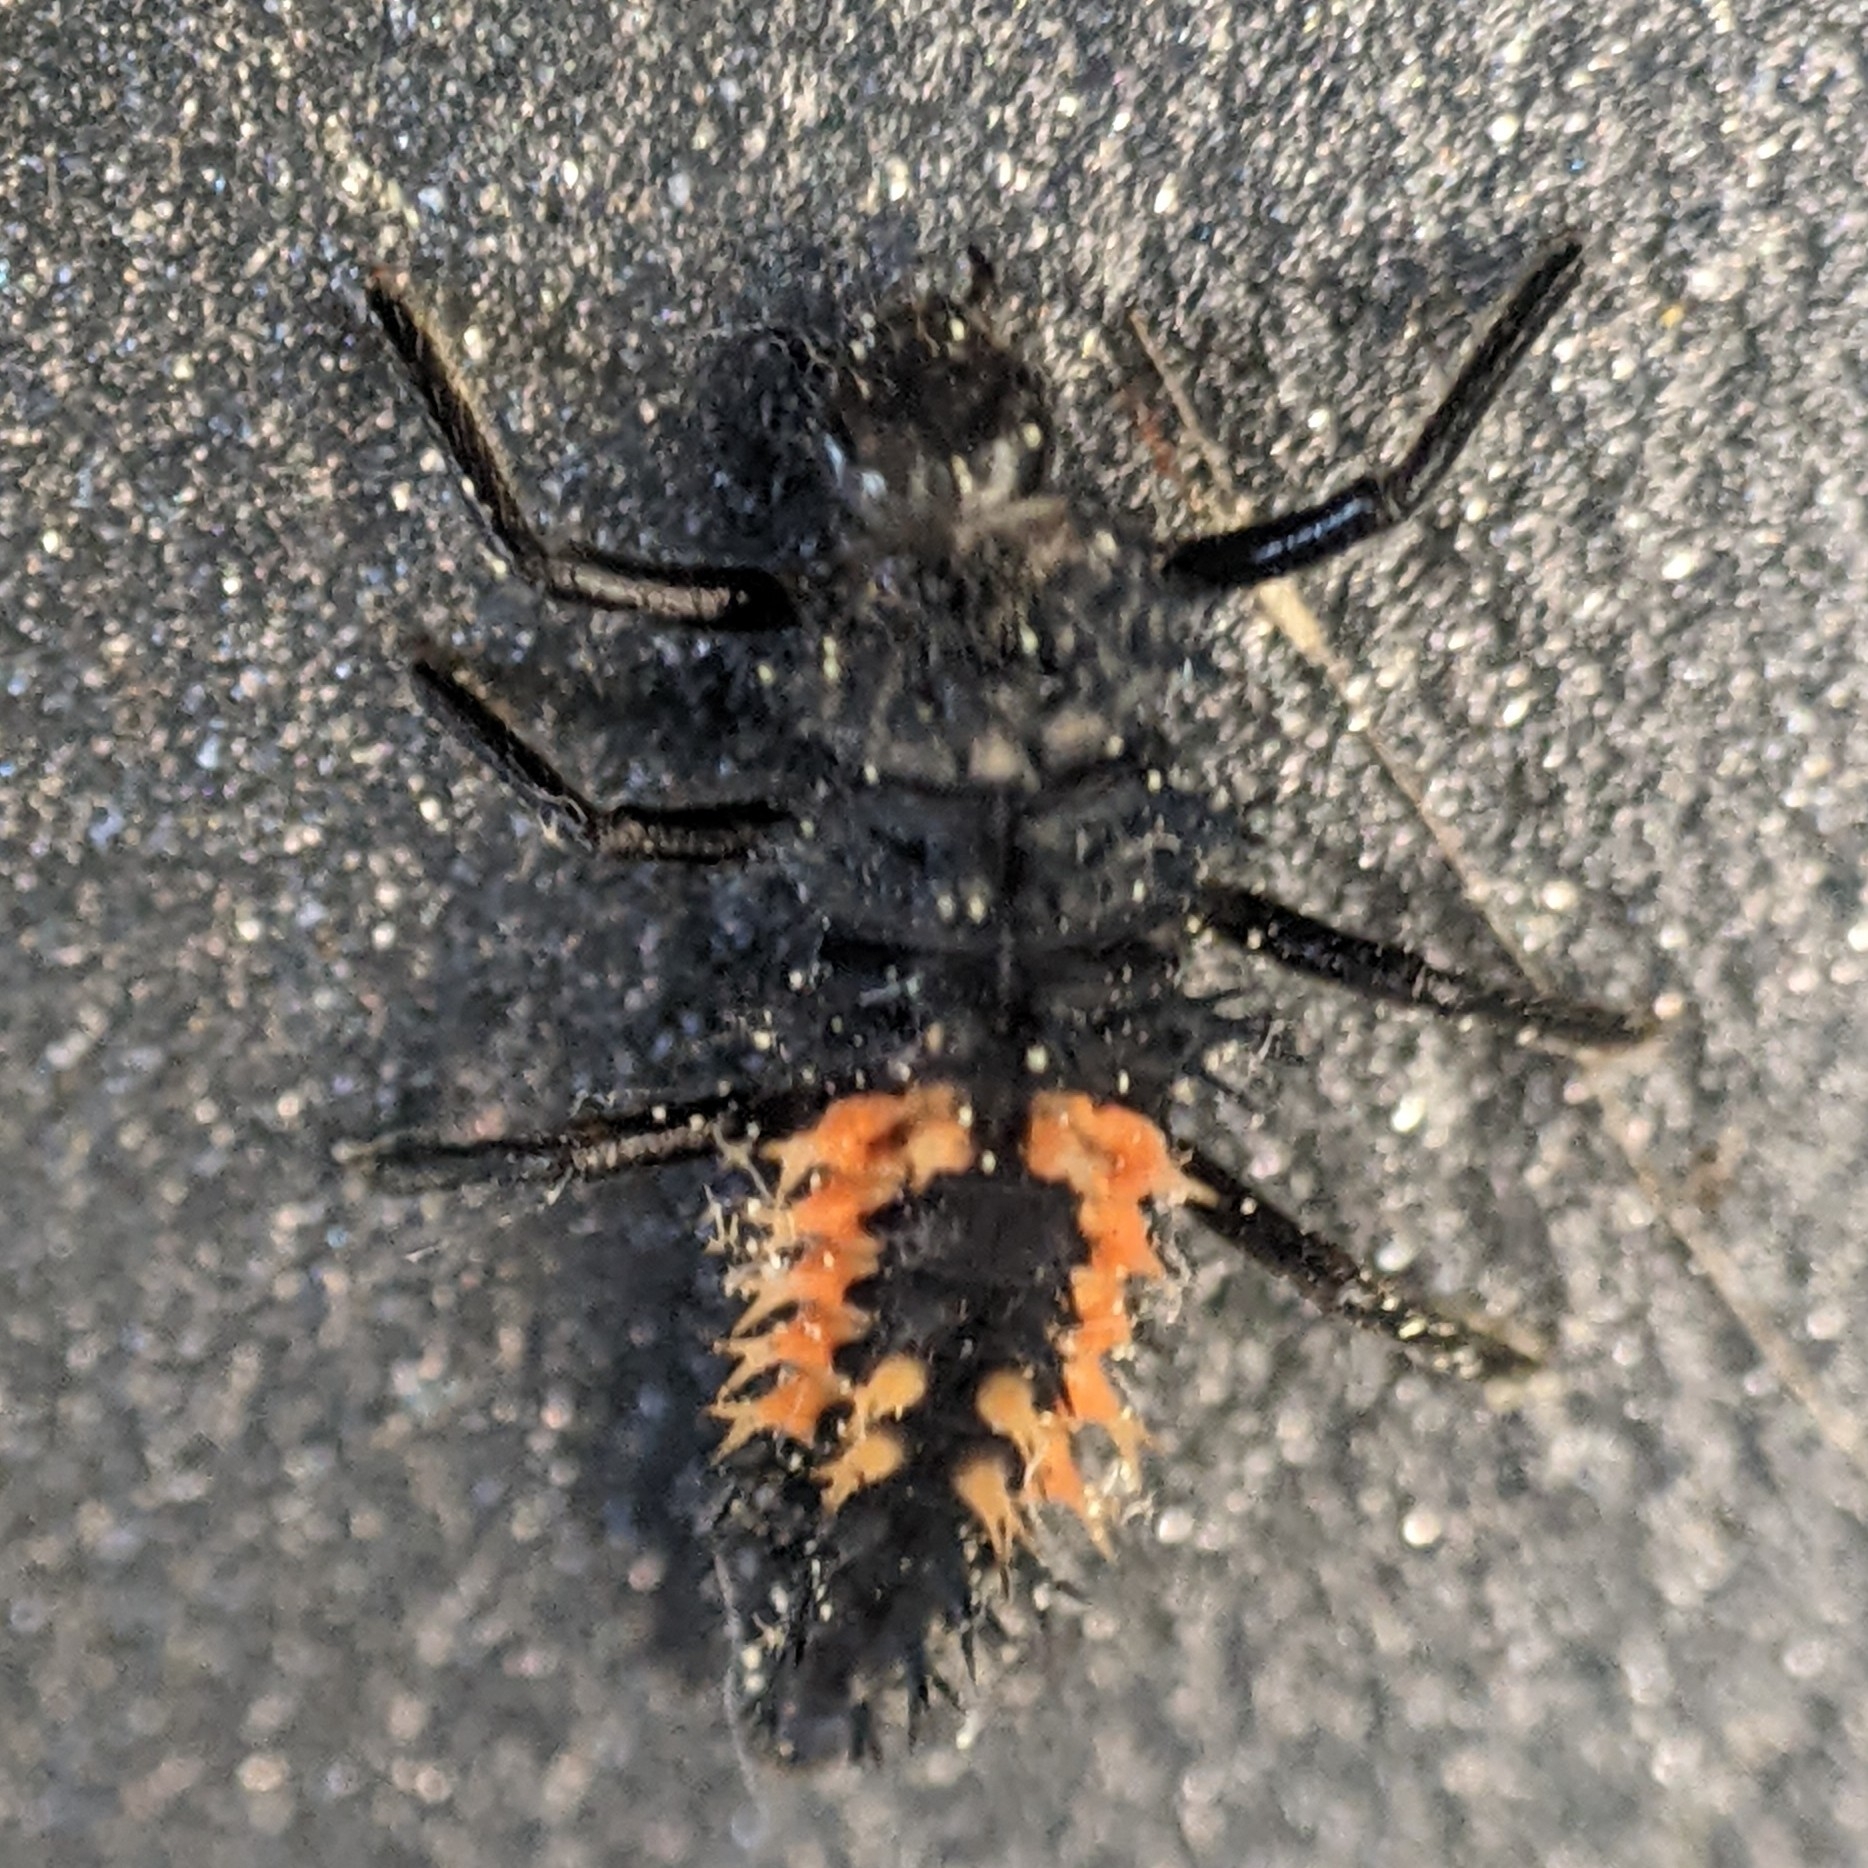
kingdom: Animalia
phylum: Arthropoda
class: Insecta
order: Coleoptera
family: Coccinellidae
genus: Harmonia
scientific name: Harmonia axyridis
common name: Harlequin ladybird
